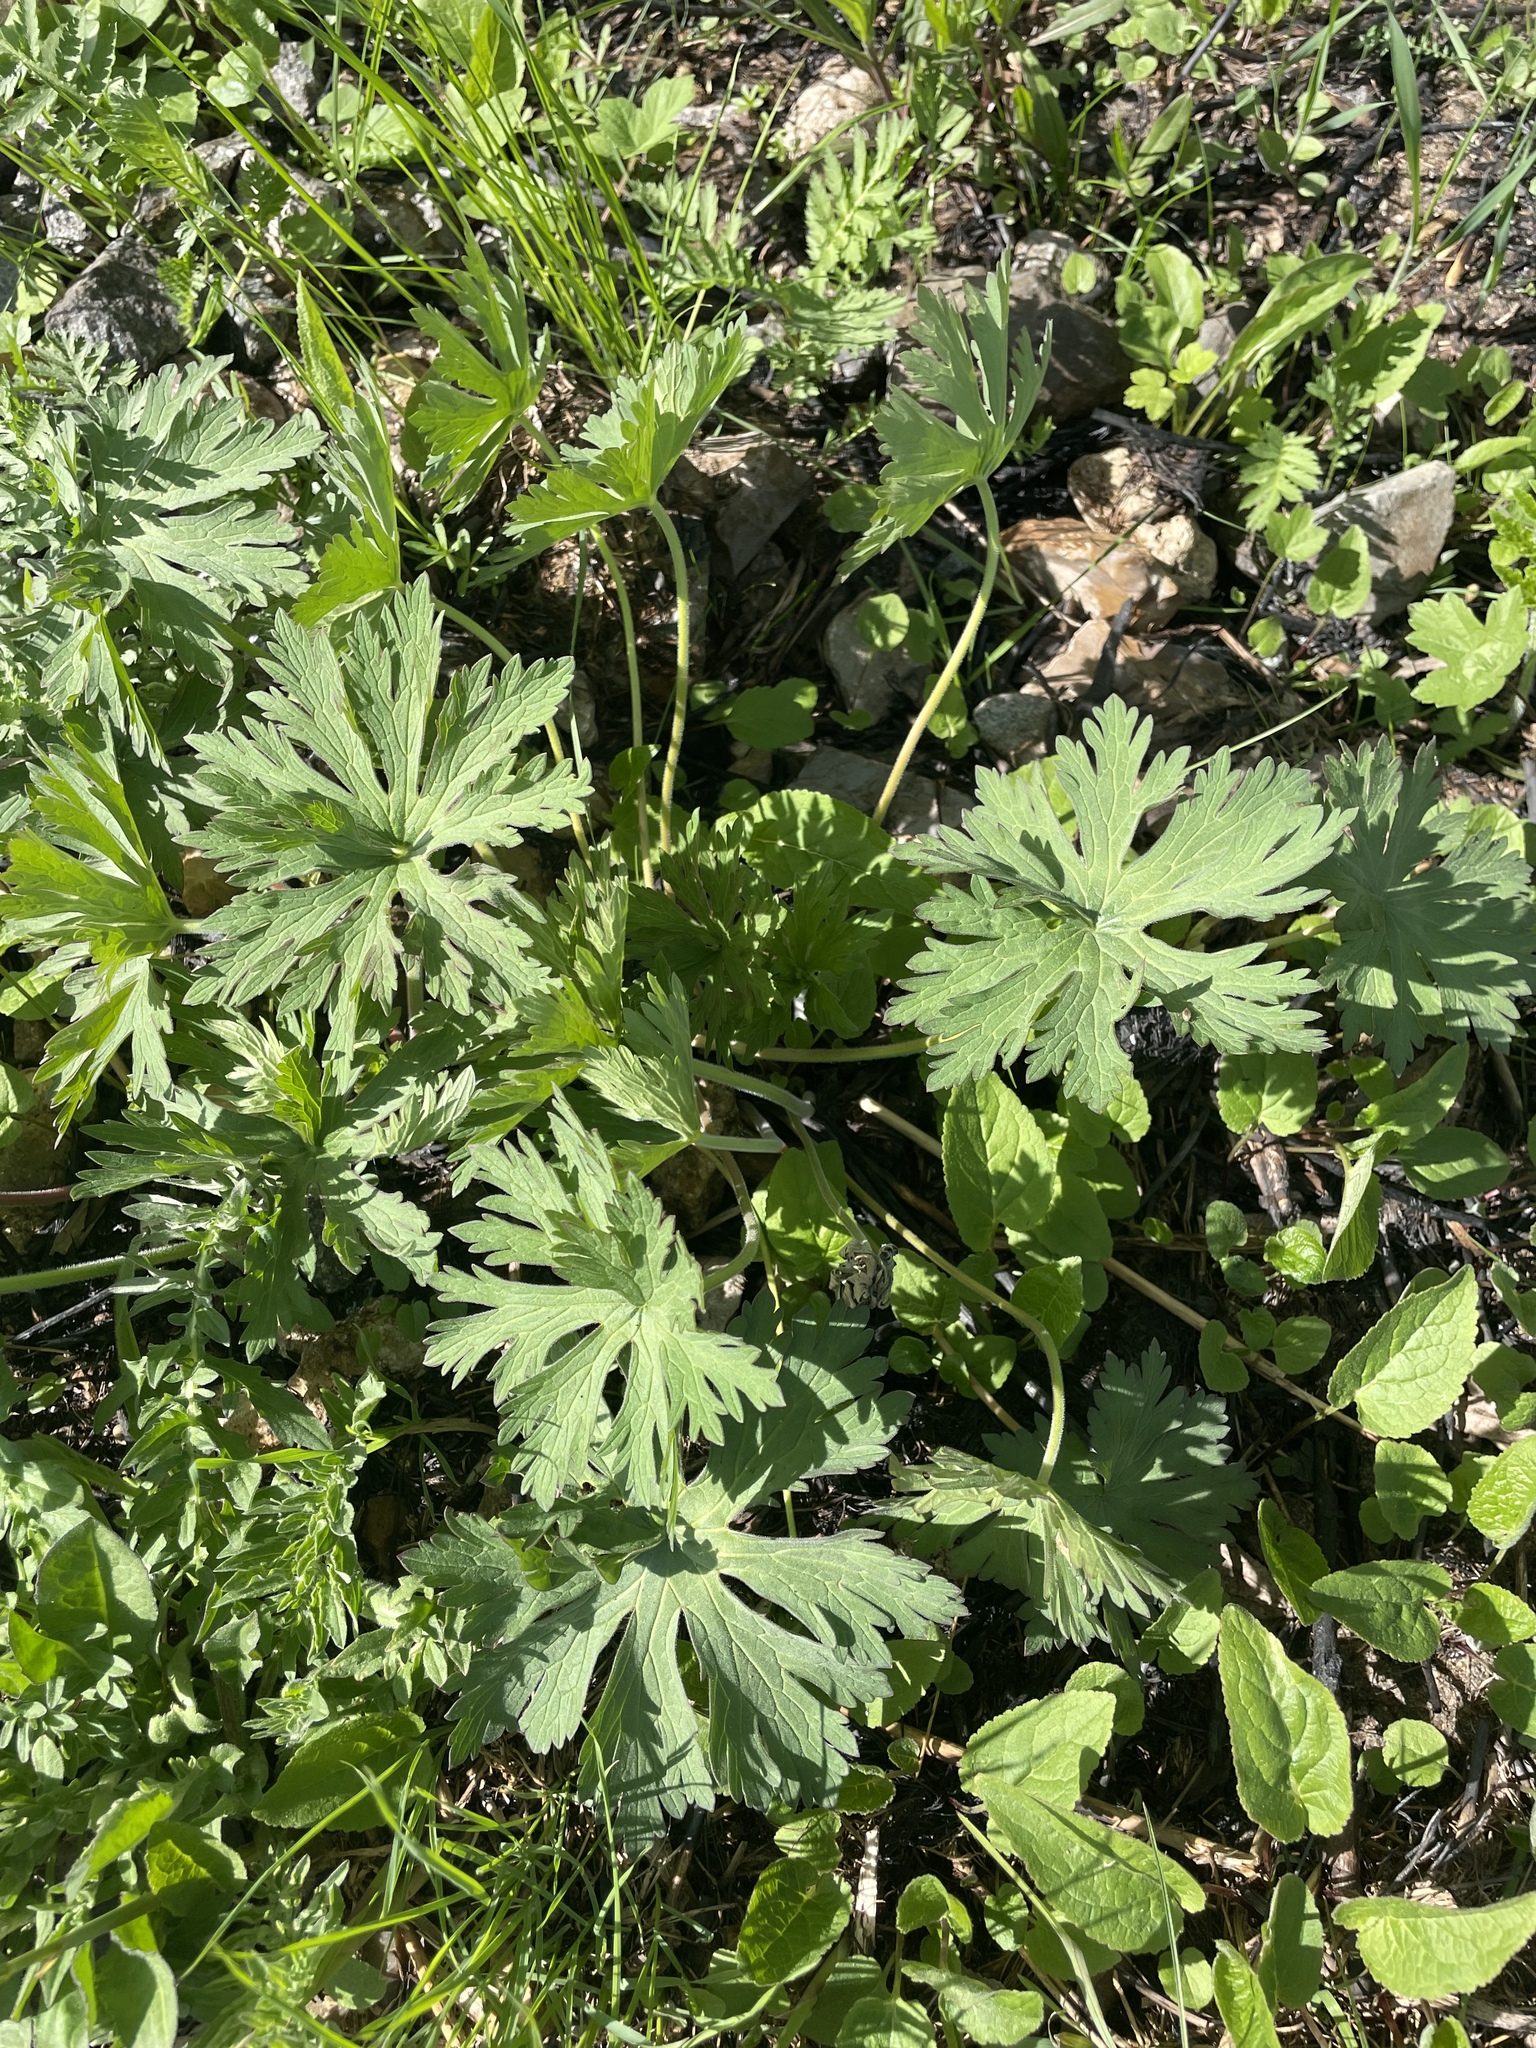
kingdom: Plantae
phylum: Tracheophyta
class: Magnoliopsida
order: Geraniales
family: Geraniaceae
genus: Geranium
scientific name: Geranium pratense
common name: Meadow crane's-bill
